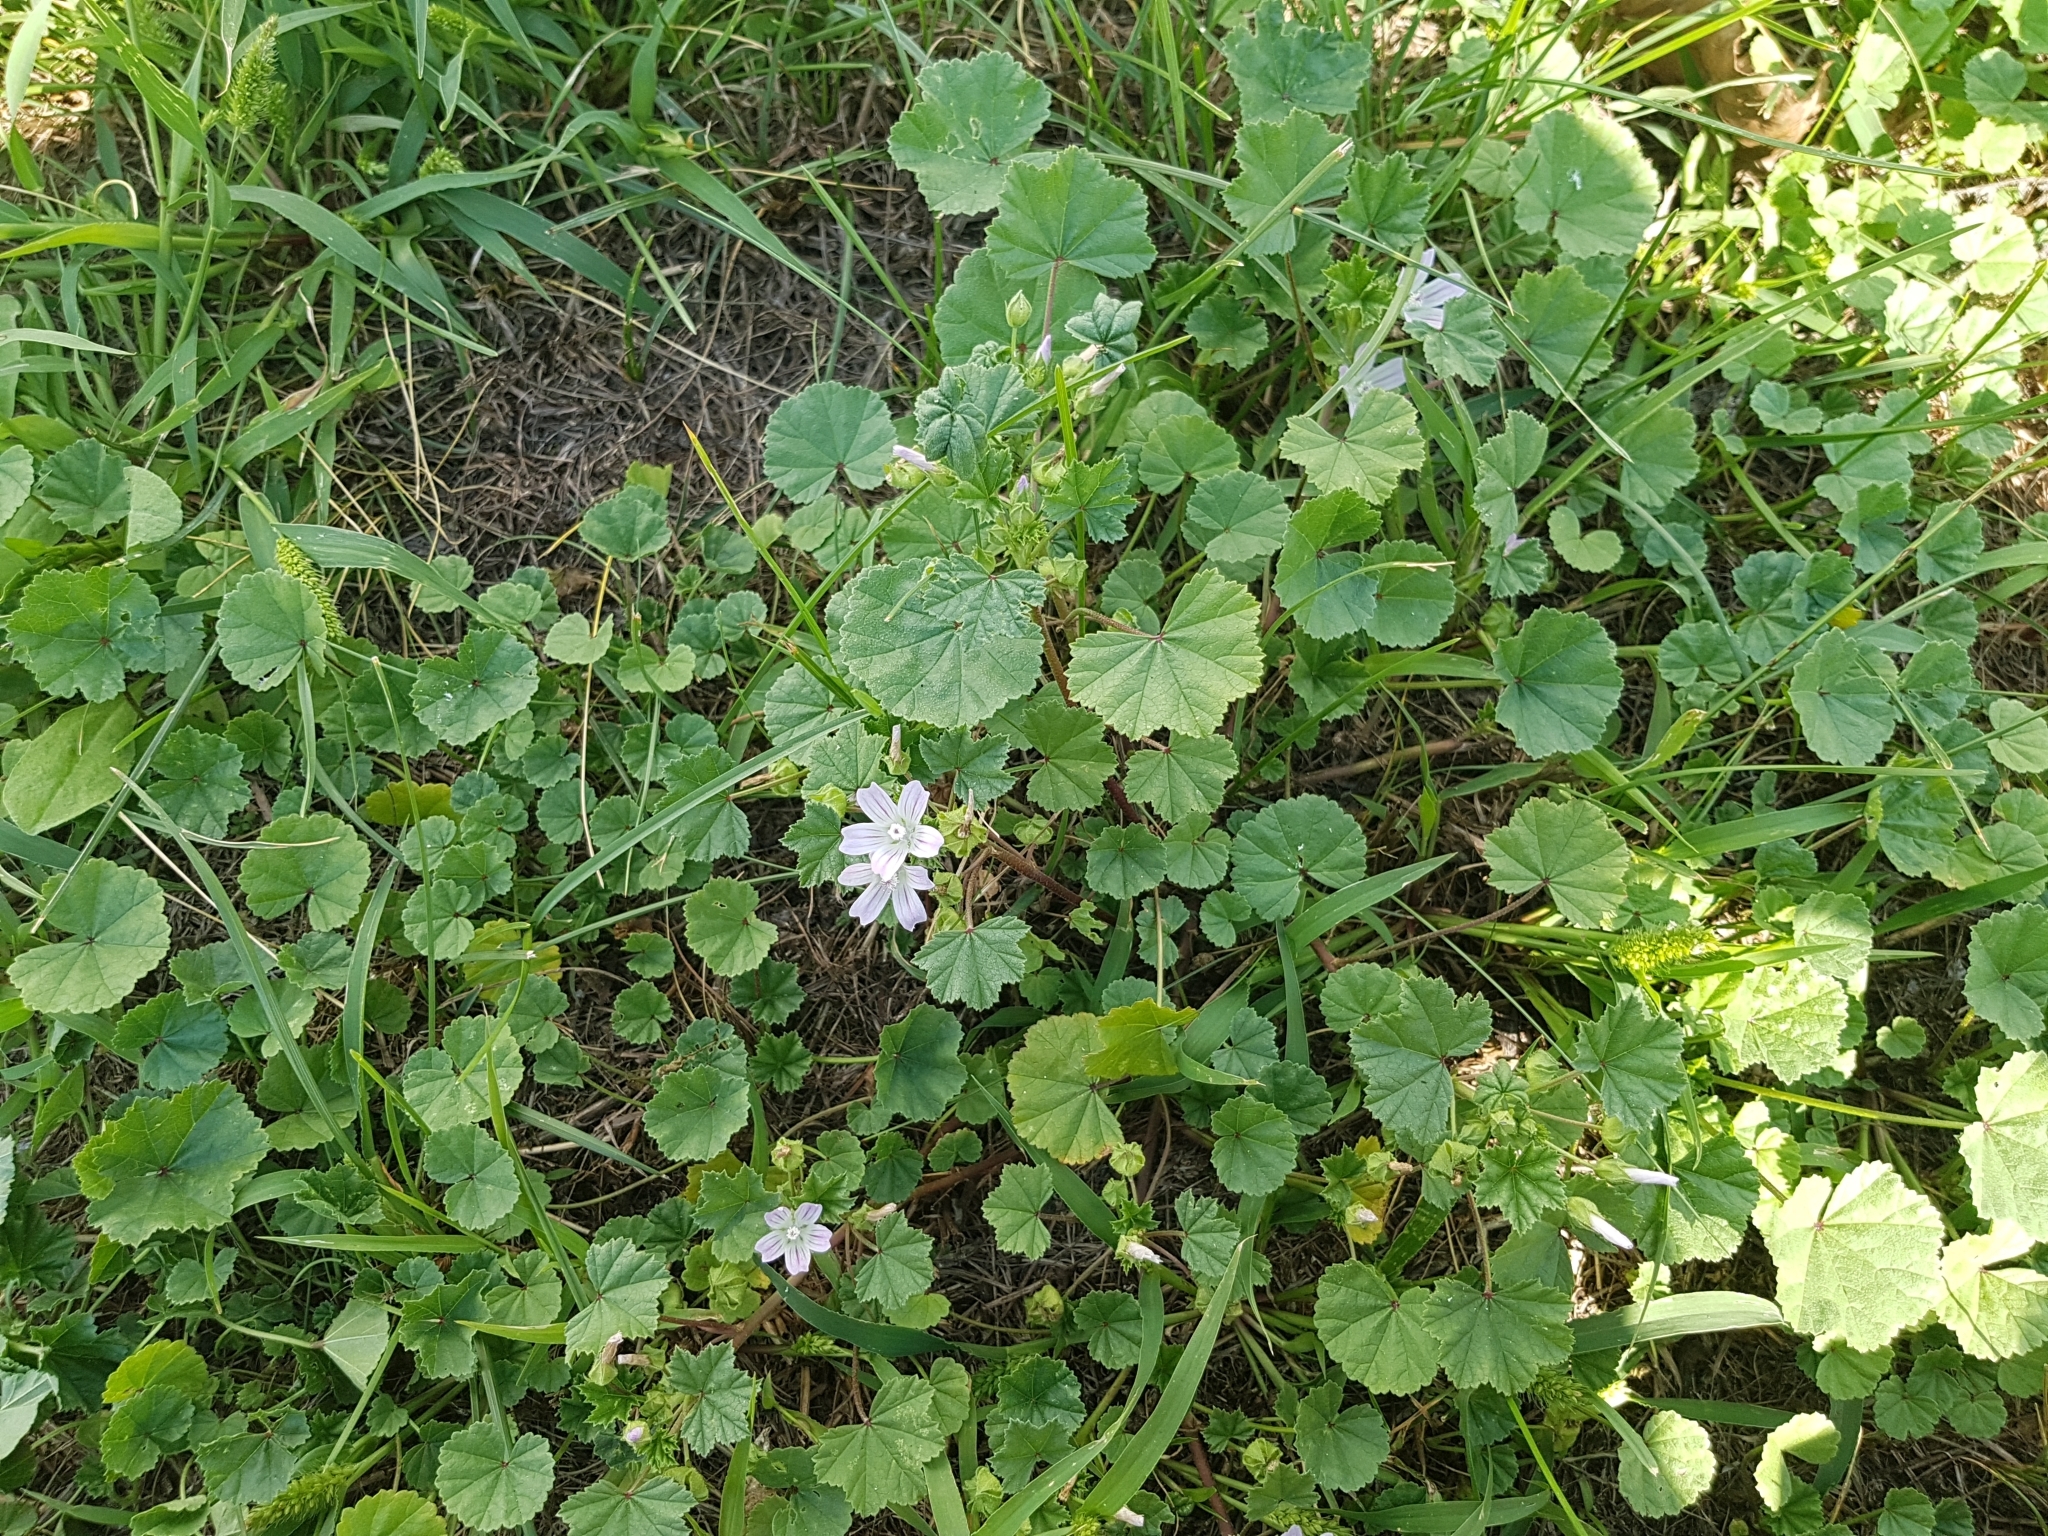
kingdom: Plantae
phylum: Tracheophyta
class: Magnoliopsida
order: Malvales
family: Malvaceae
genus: Malva
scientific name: Malva neglecta
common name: Common mallow
